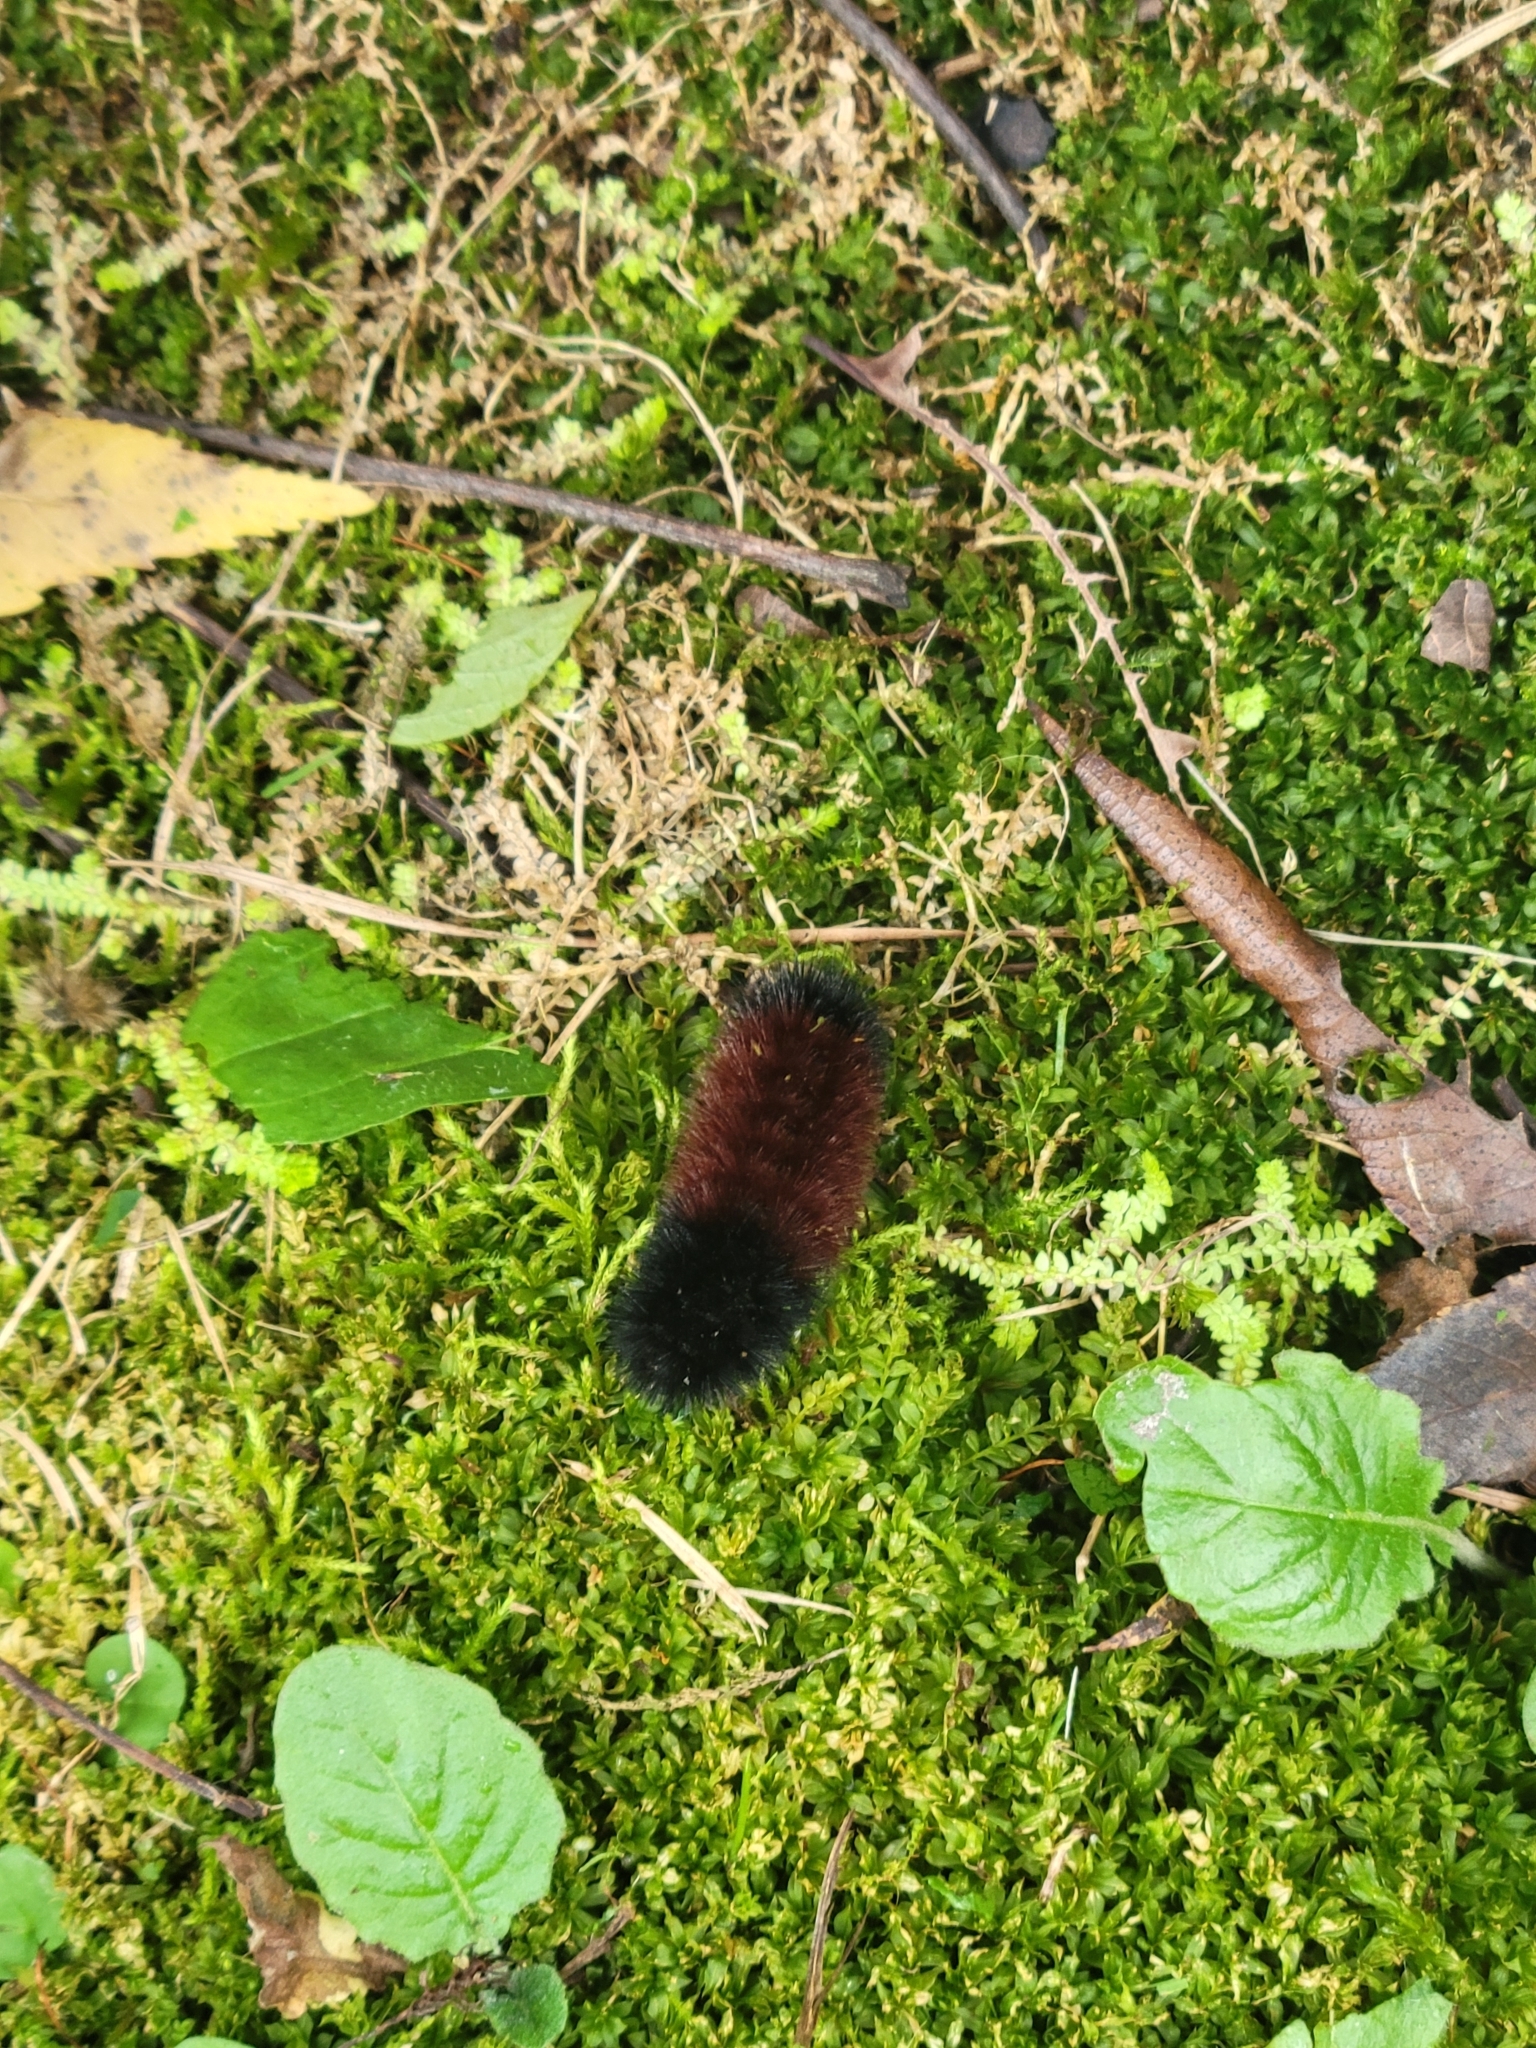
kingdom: Animalia
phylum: Arthropoda
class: Insecta
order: Lepidoptera
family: Erebidae
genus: Pyrrharctia
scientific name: Pyrrharctia isabella
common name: Isabella tiger moth
